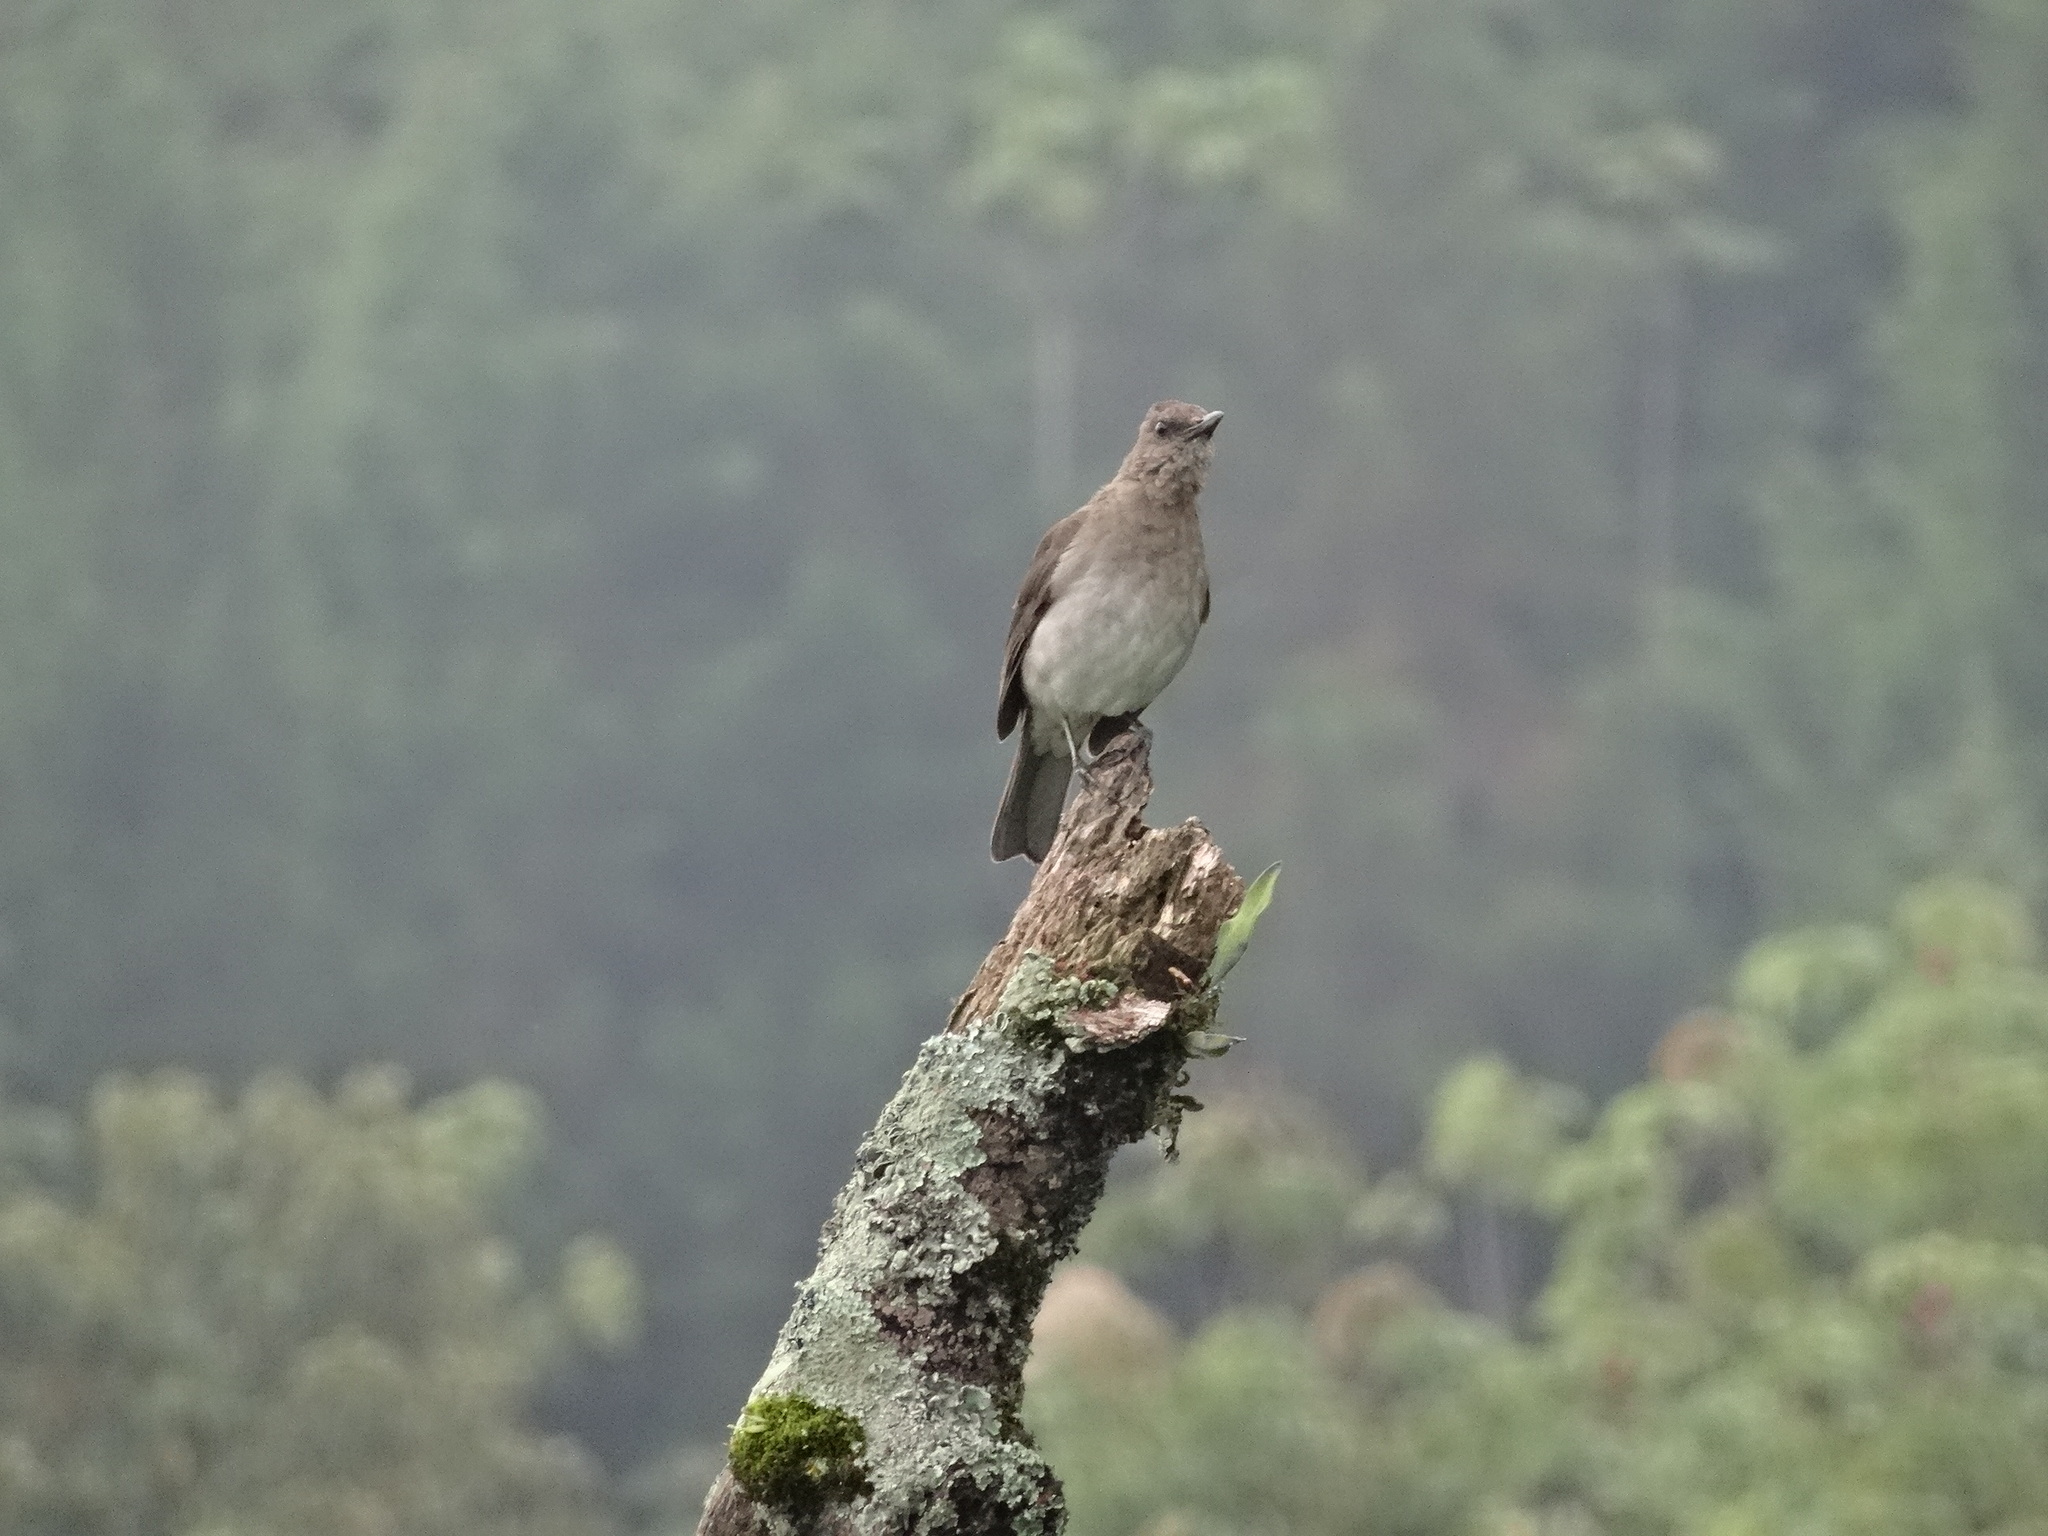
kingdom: Animalia
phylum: Chordata
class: Aves
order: Passeriformes
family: Turdidae
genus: Turdus
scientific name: Turdus ignobilis
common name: Black-billed thrush
